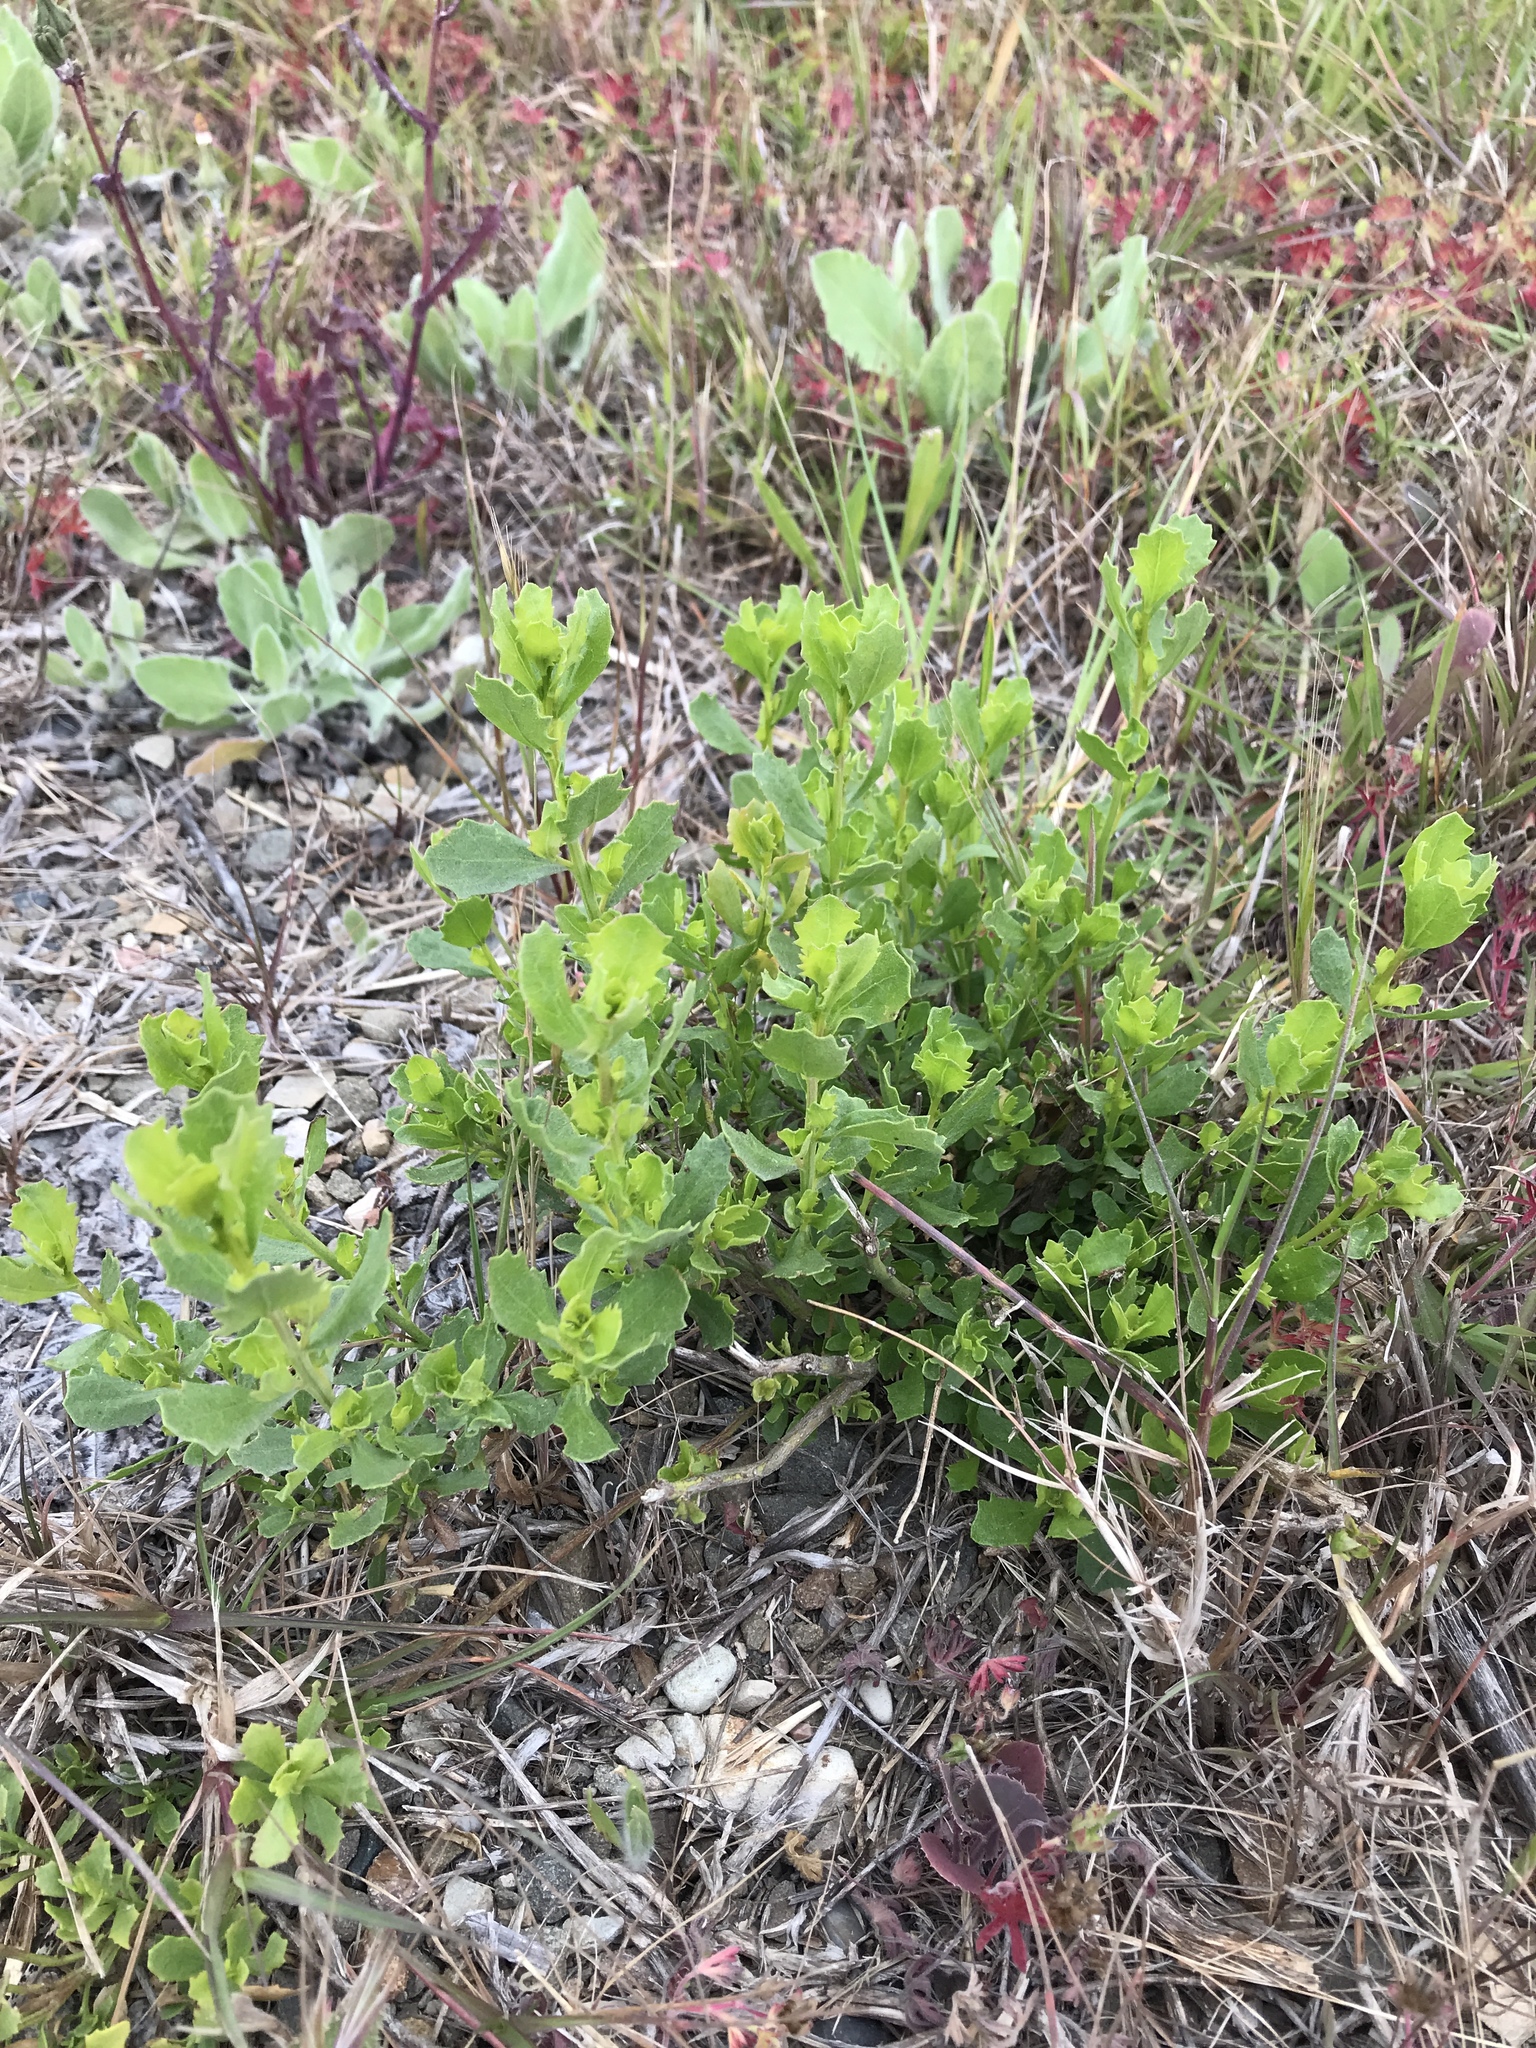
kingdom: Plantae
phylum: Tracheophyta
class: Magnoliopsida
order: Asterales
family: Asteraceae
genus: Baccharis
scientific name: Baccharis pilularis
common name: Coyotebrush
